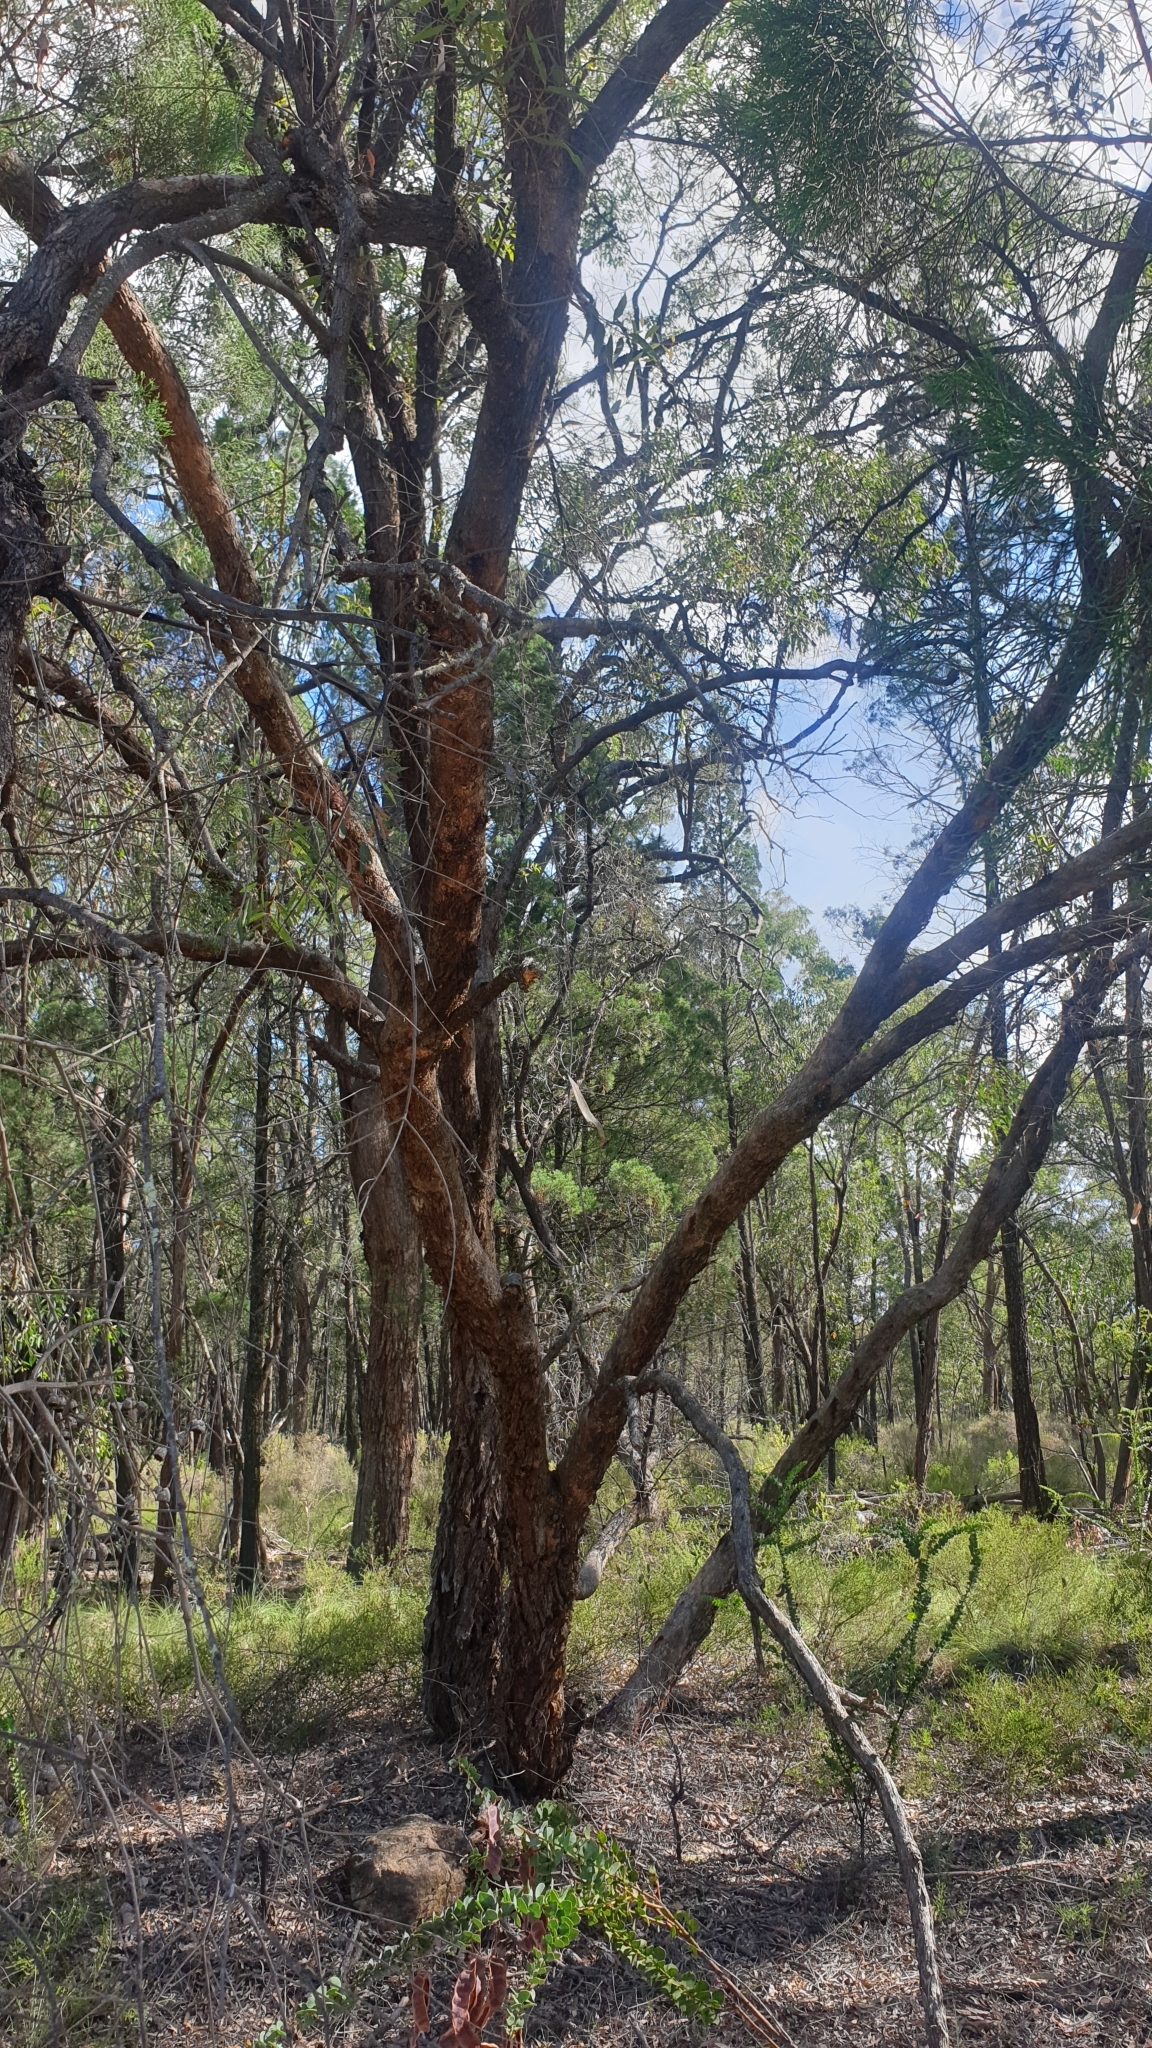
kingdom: Plantae
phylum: Tracheophyta
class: Magnoliopsida
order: Myrtales
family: Myrtaceae
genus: Angophora
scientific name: Angophora floribunda
